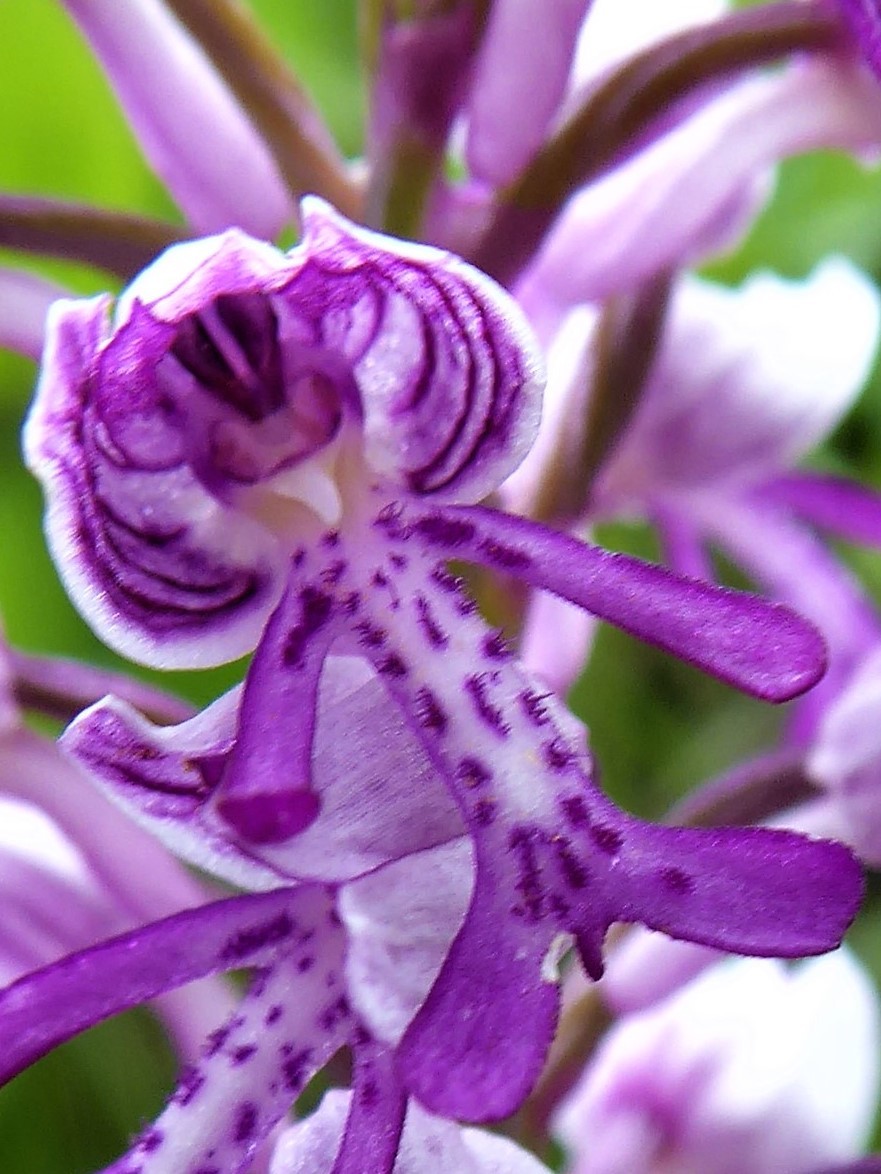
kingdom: Plantae
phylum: Tracheophyta
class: Liliopsida
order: Asparagales
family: Orchidaceae
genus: Orchis
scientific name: Orchis militaris
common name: Military orchid
